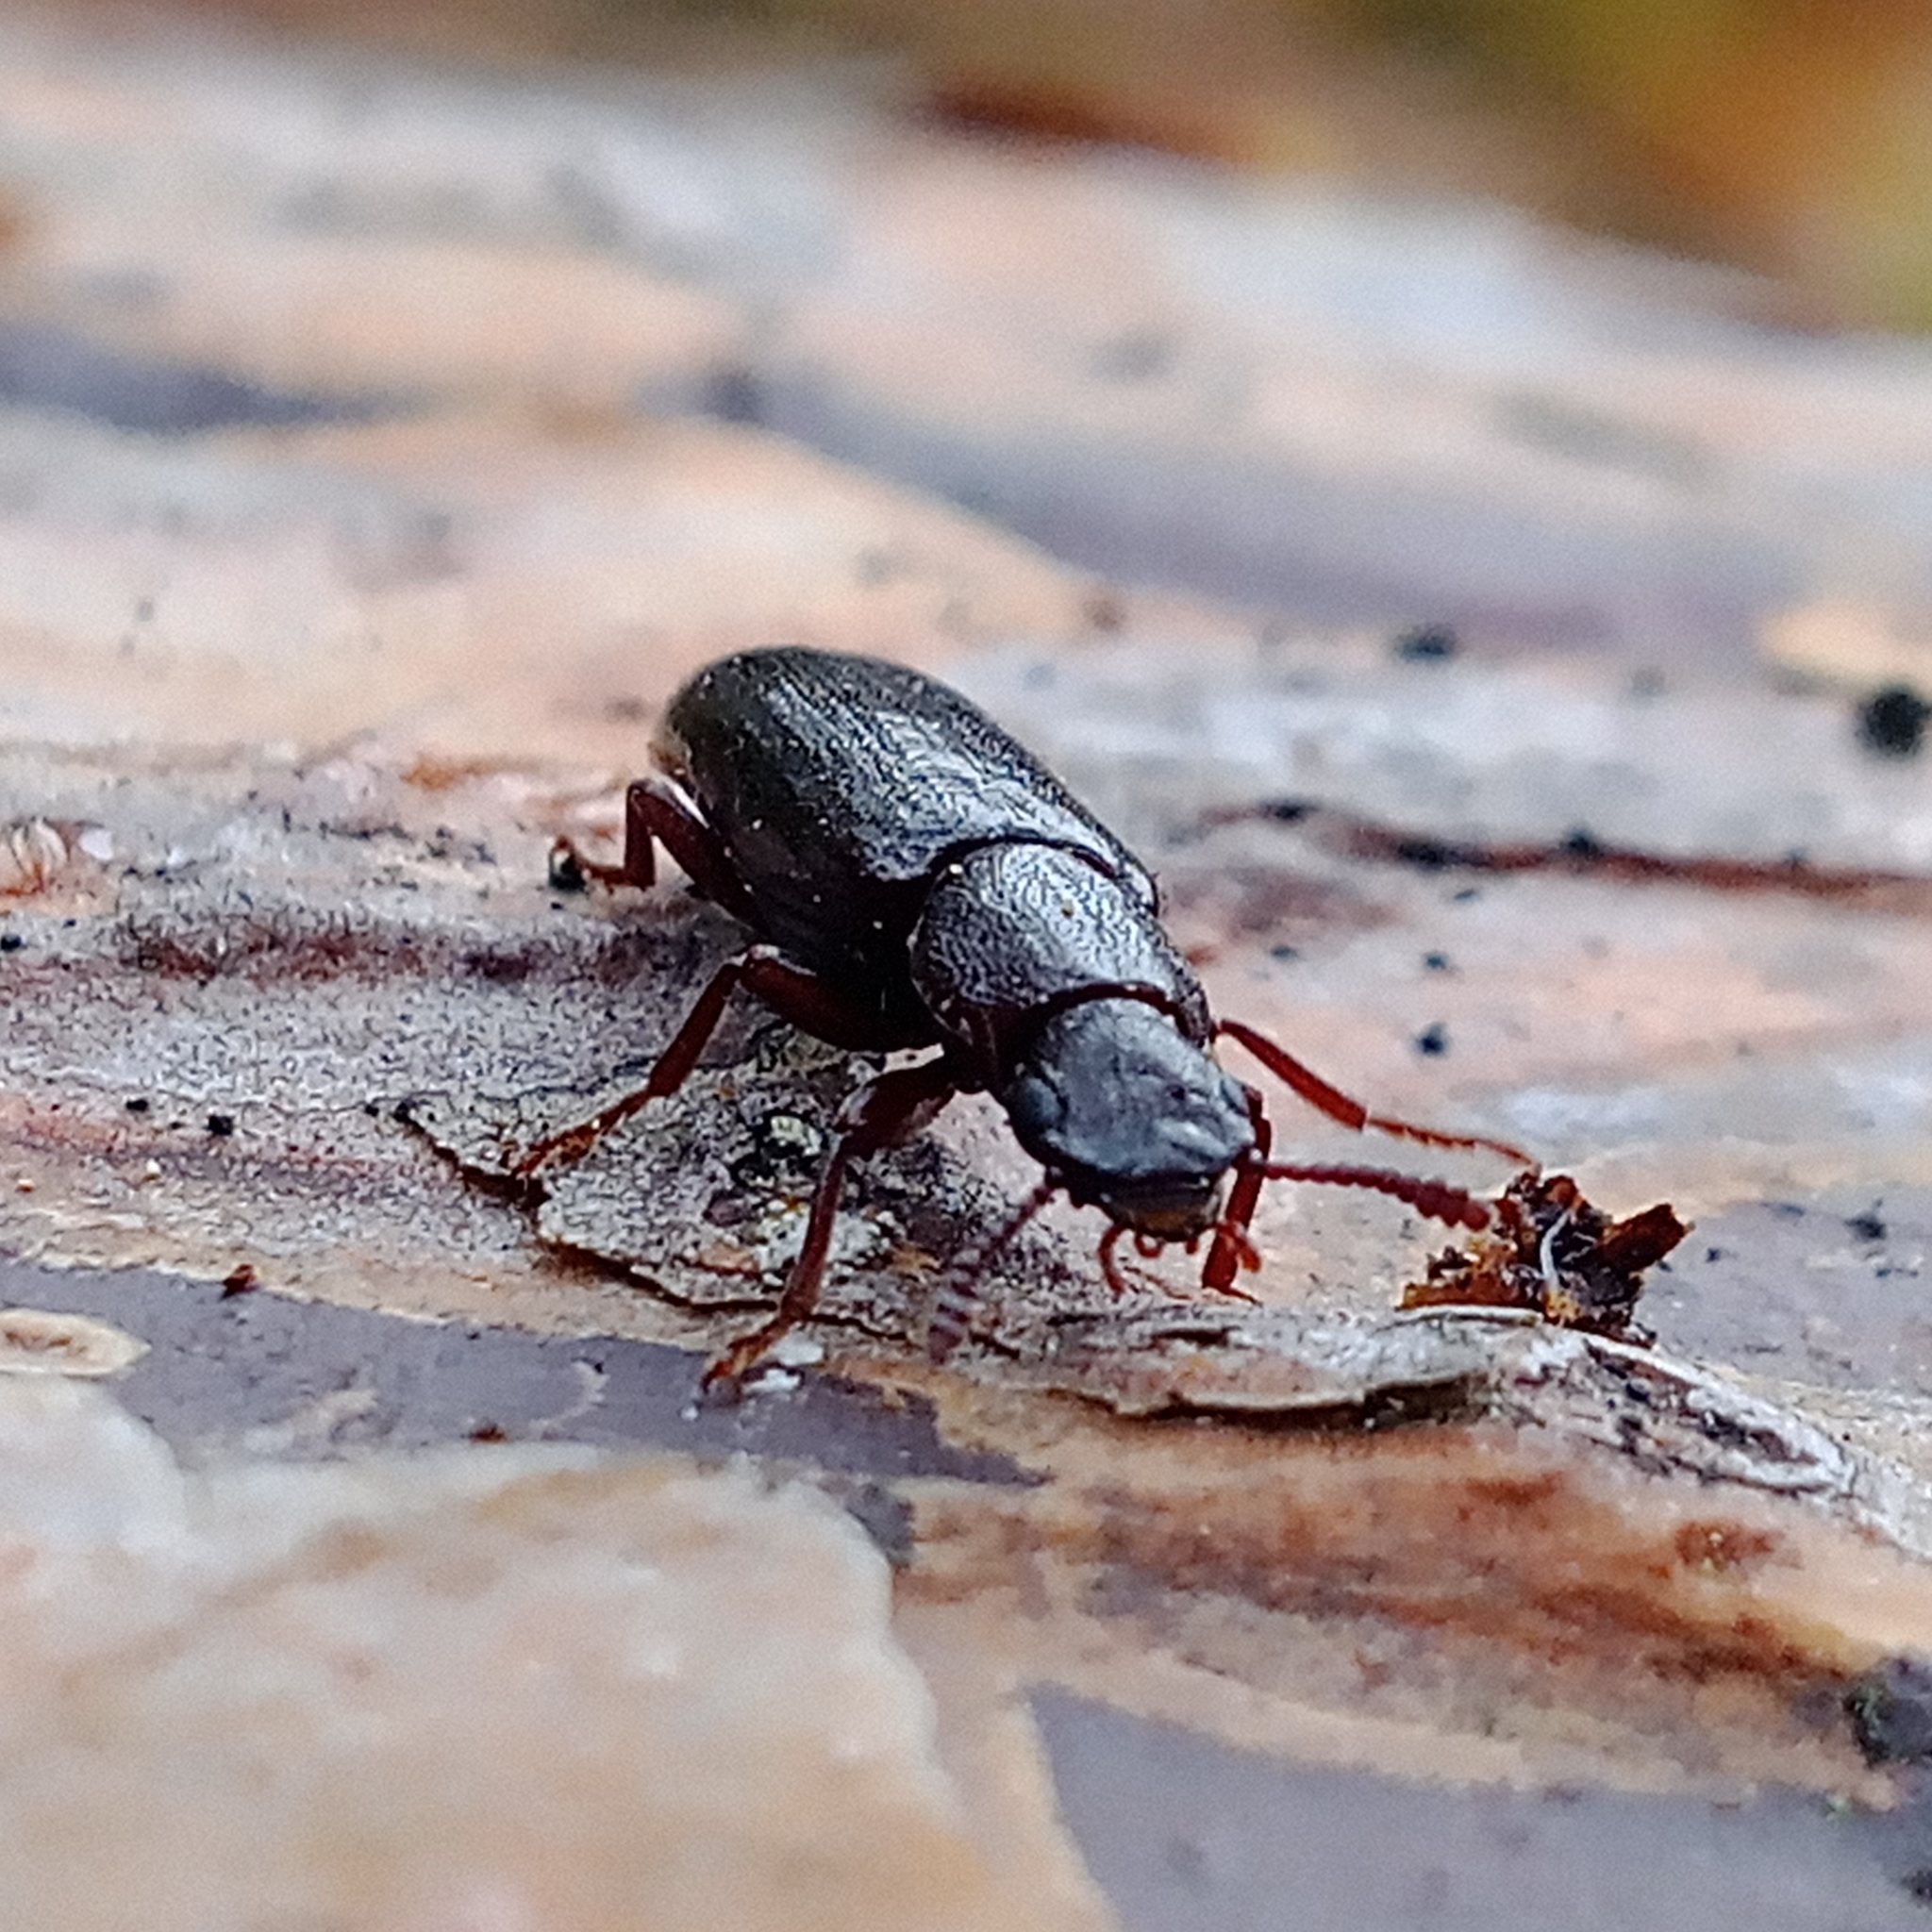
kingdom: Animalia
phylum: Arthropoda
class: Insecta
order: Coleoptera
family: Boridae
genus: Boros
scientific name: Boros schneideri
